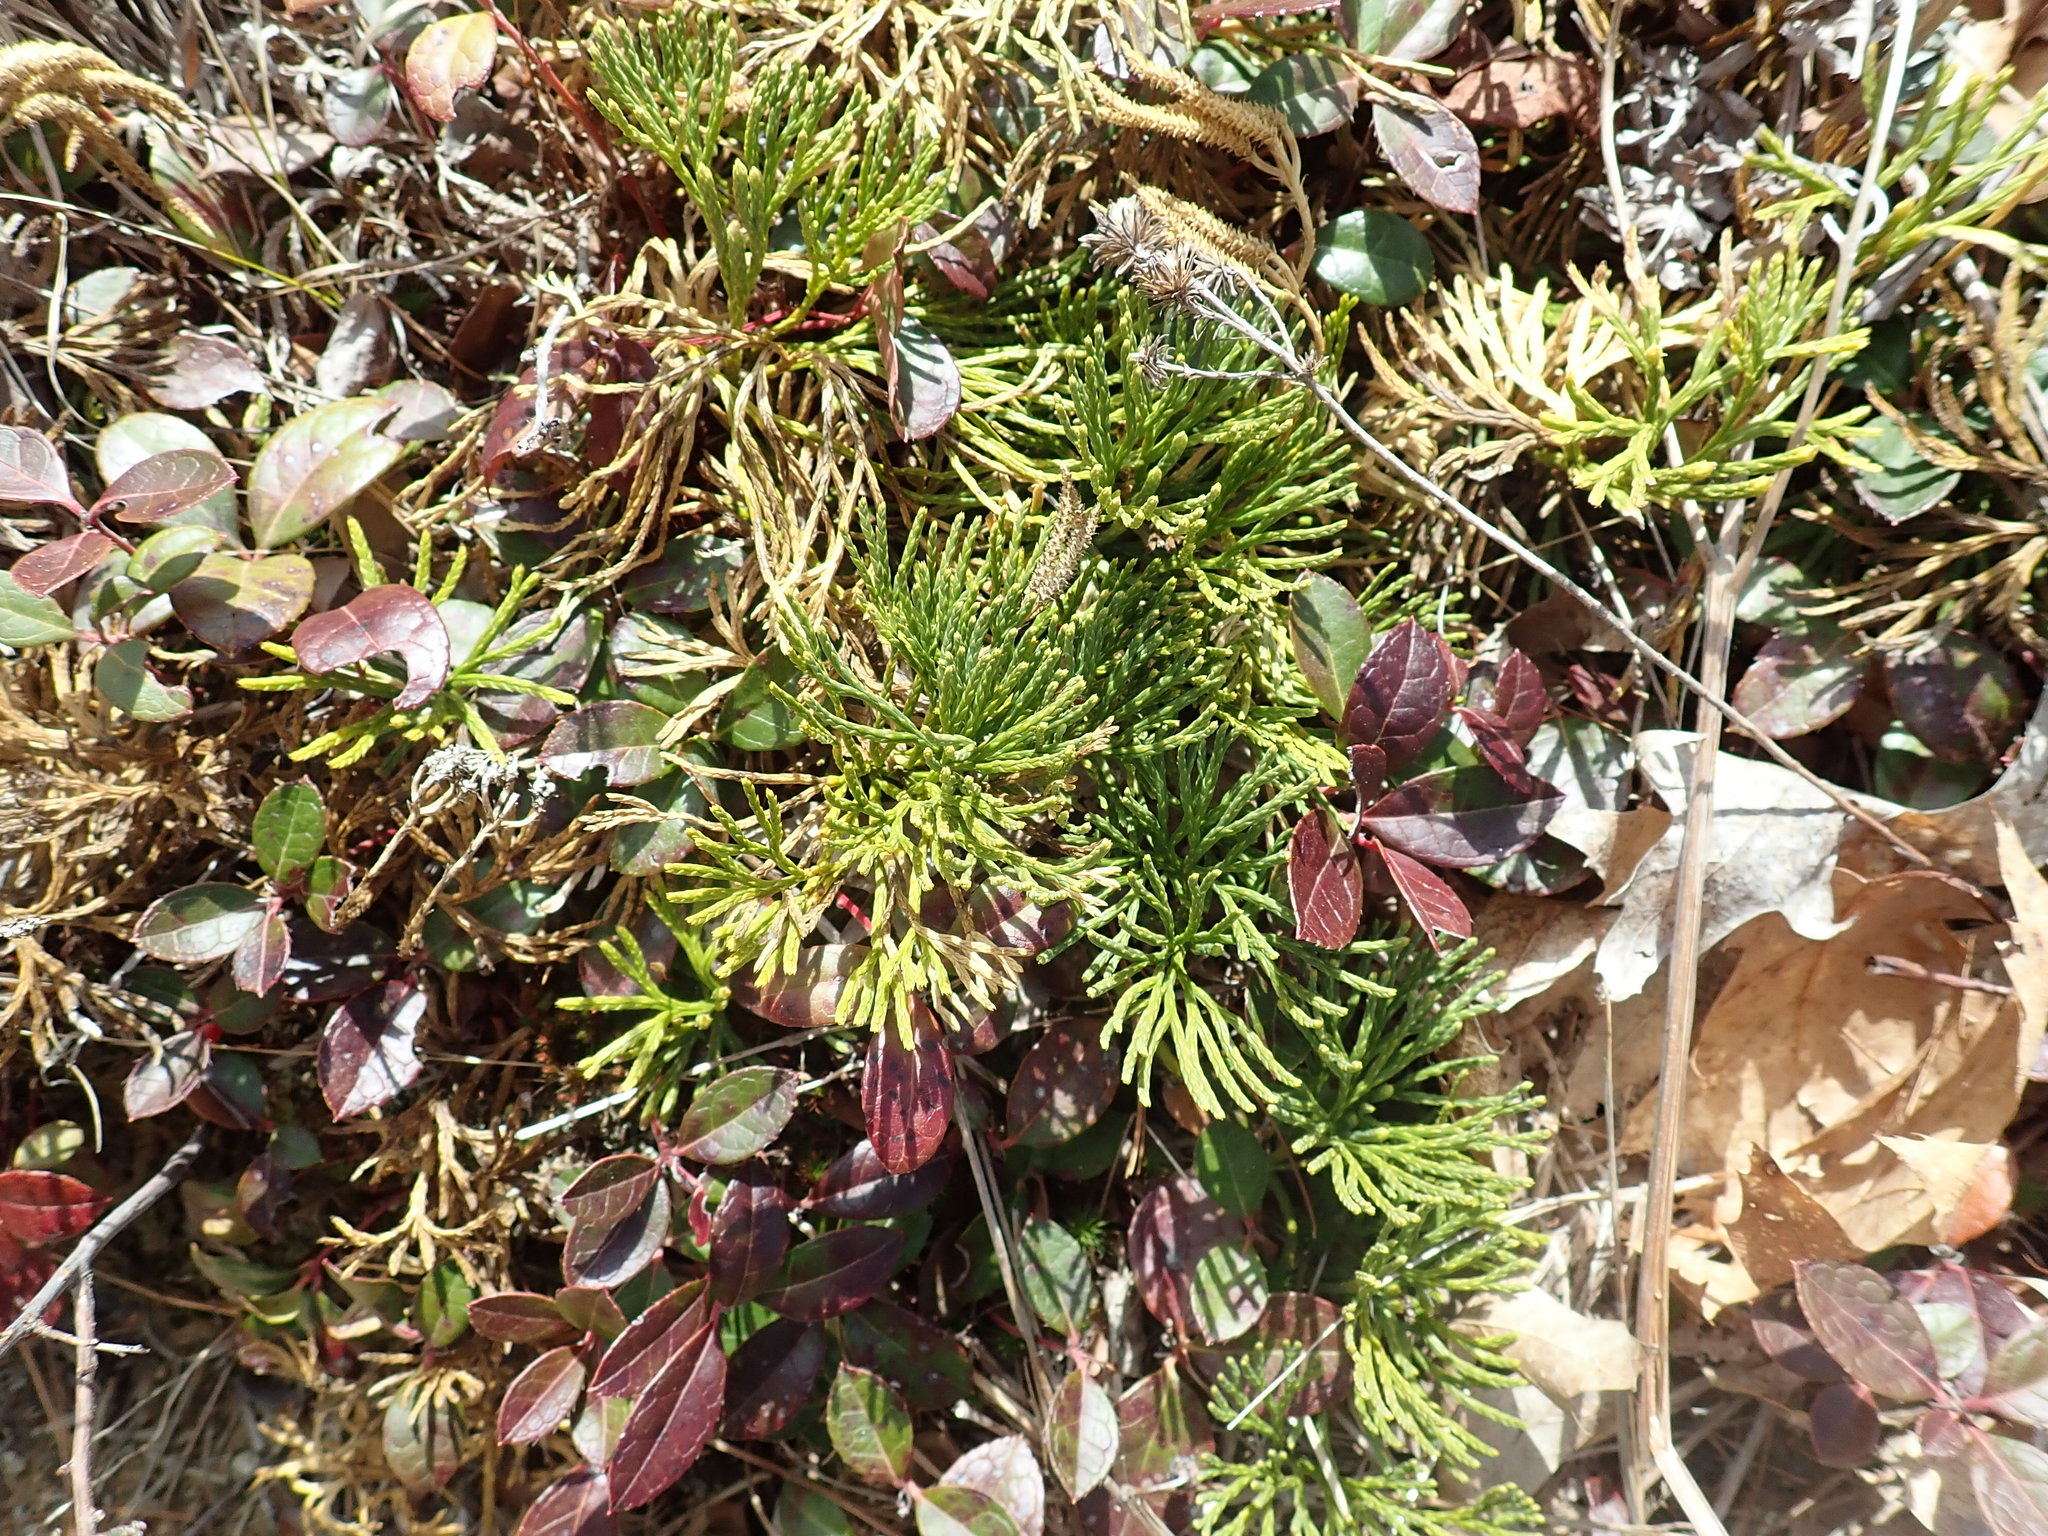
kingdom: Plantae
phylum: Tracheophyta
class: Lycopodiopsida
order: Lycopodiales
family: Lycopodiaceae
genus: Diphasiastrum
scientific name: Diphasiastrum tristachyum
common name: Blue ground-cedar
